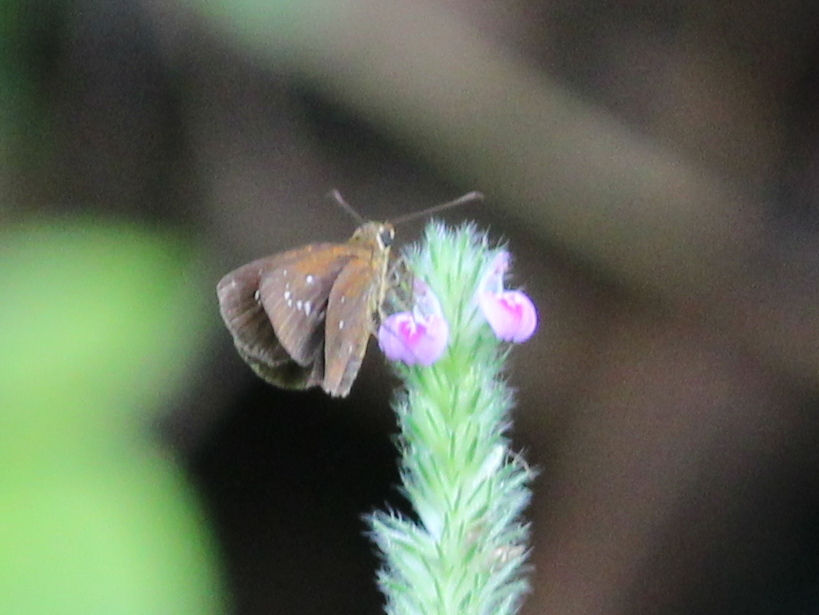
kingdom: Animalia
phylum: Arthropoda
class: Insecta
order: Lepidoptera
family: Hesperiidae
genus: Iambrix
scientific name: Iambrix salsala
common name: Chestnut bob
